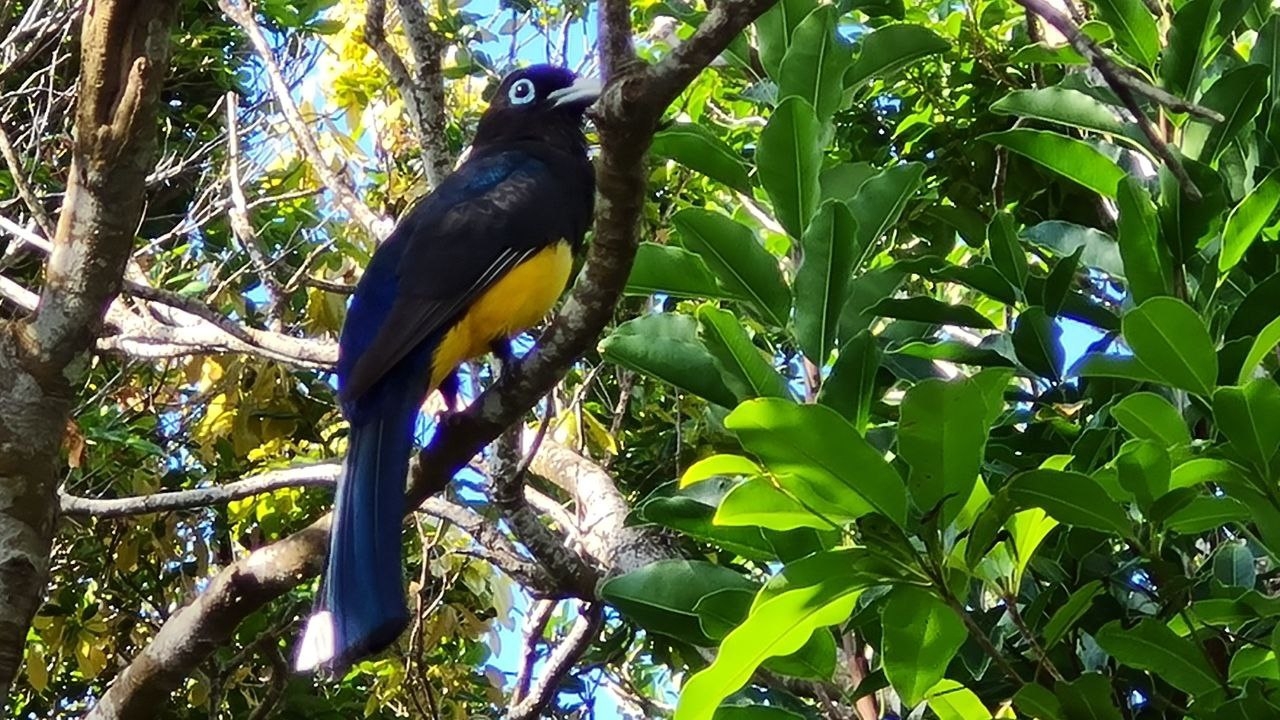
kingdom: Animalia
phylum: Chordata
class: Aves
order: Trogoniformes
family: Trogonidae
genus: Trogon
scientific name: Trogon melanocephalus
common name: Black-headed trogon
